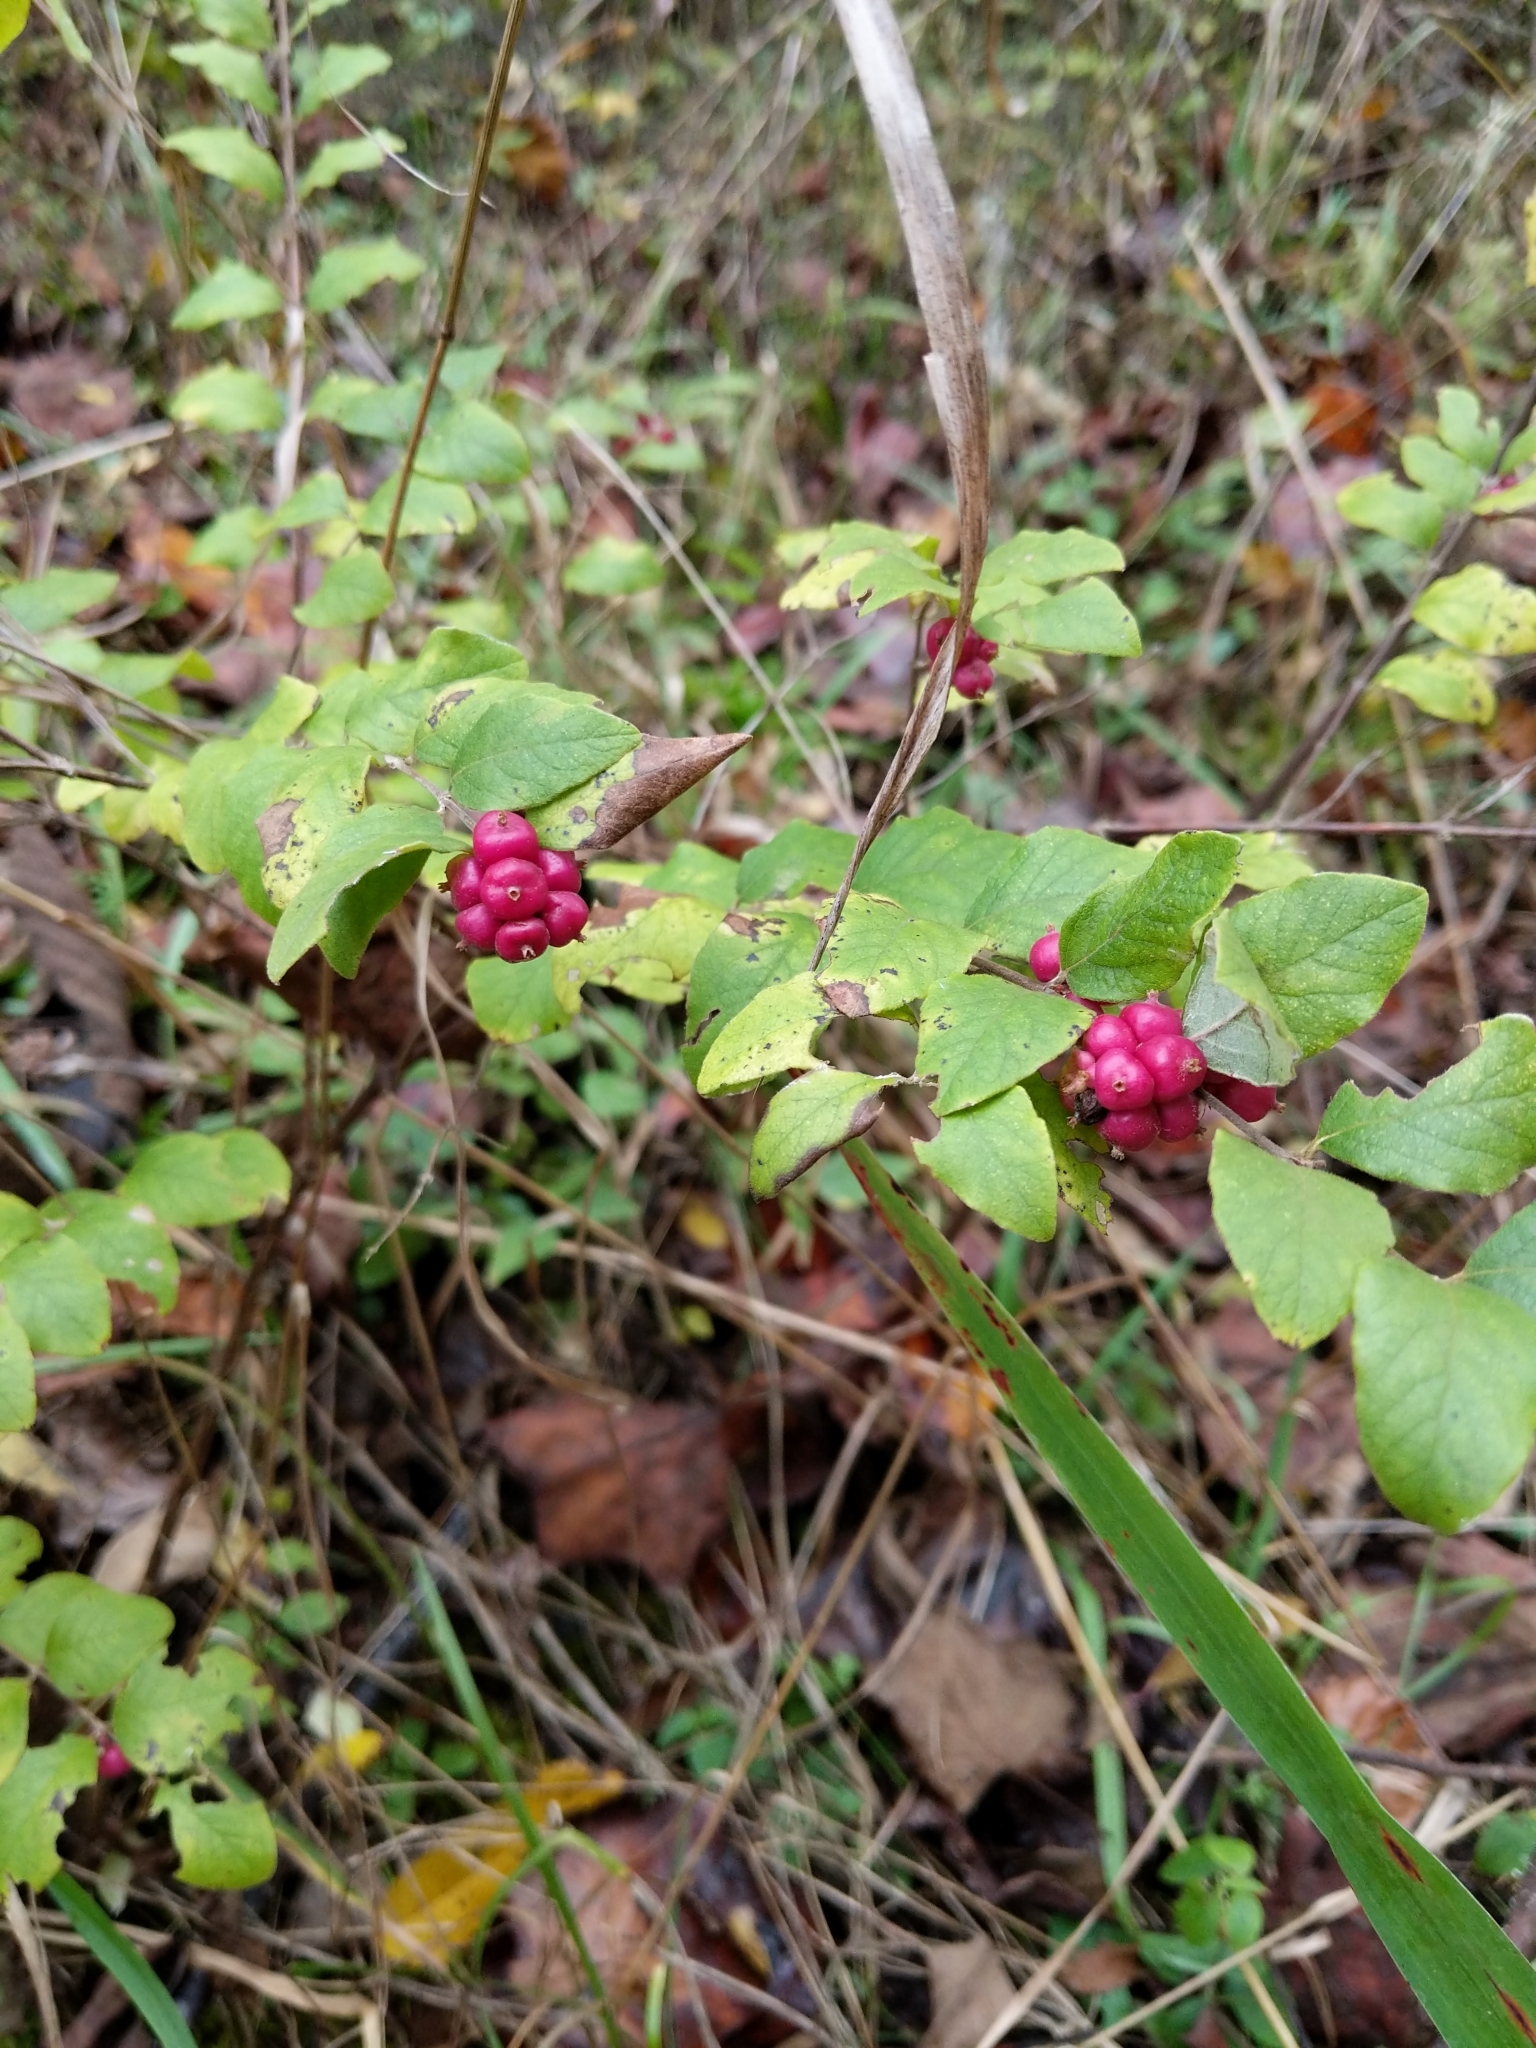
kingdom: Plantae
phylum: Tracheophyta
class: Magnoliopsida
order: Dipsacales
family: Caprifoliaceae
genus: Symphoricarpos
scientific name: Symphoricarpos orbiculatus
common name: Coralberry
